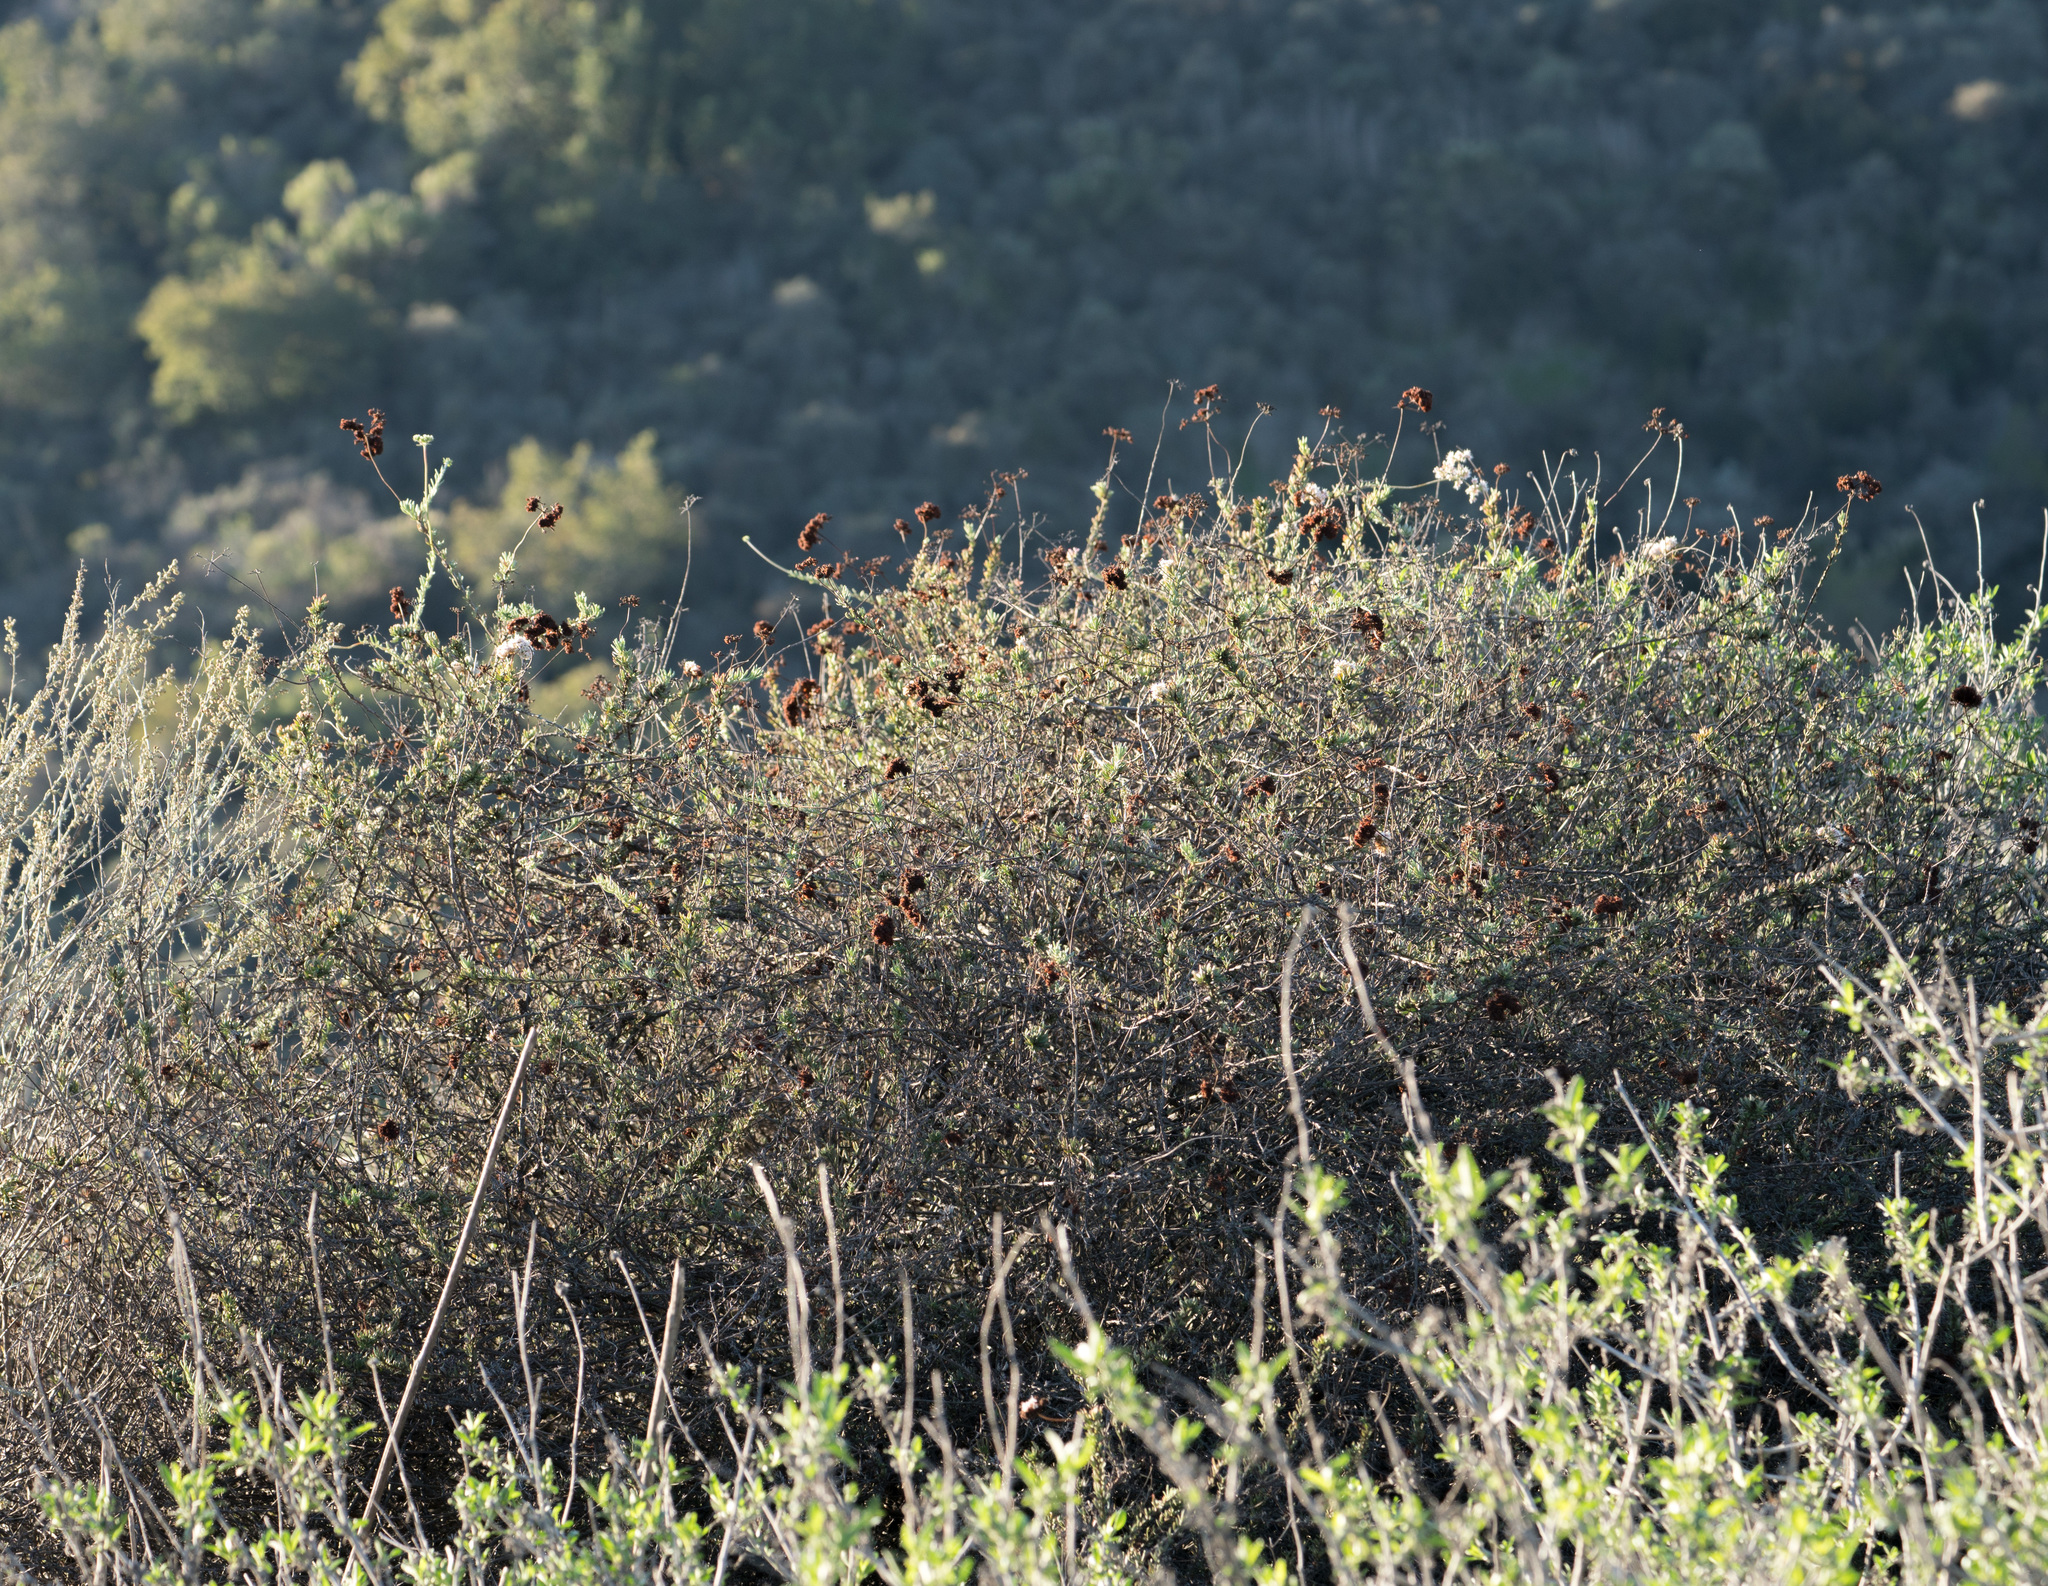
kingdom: Plantae
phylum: Tracheophyta
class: Magnoliopsida
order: Caryophyllales
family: Polygonaceae
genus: Eriogonum
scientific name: Eriogonum fasciculatum
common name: California wild buckwheat
